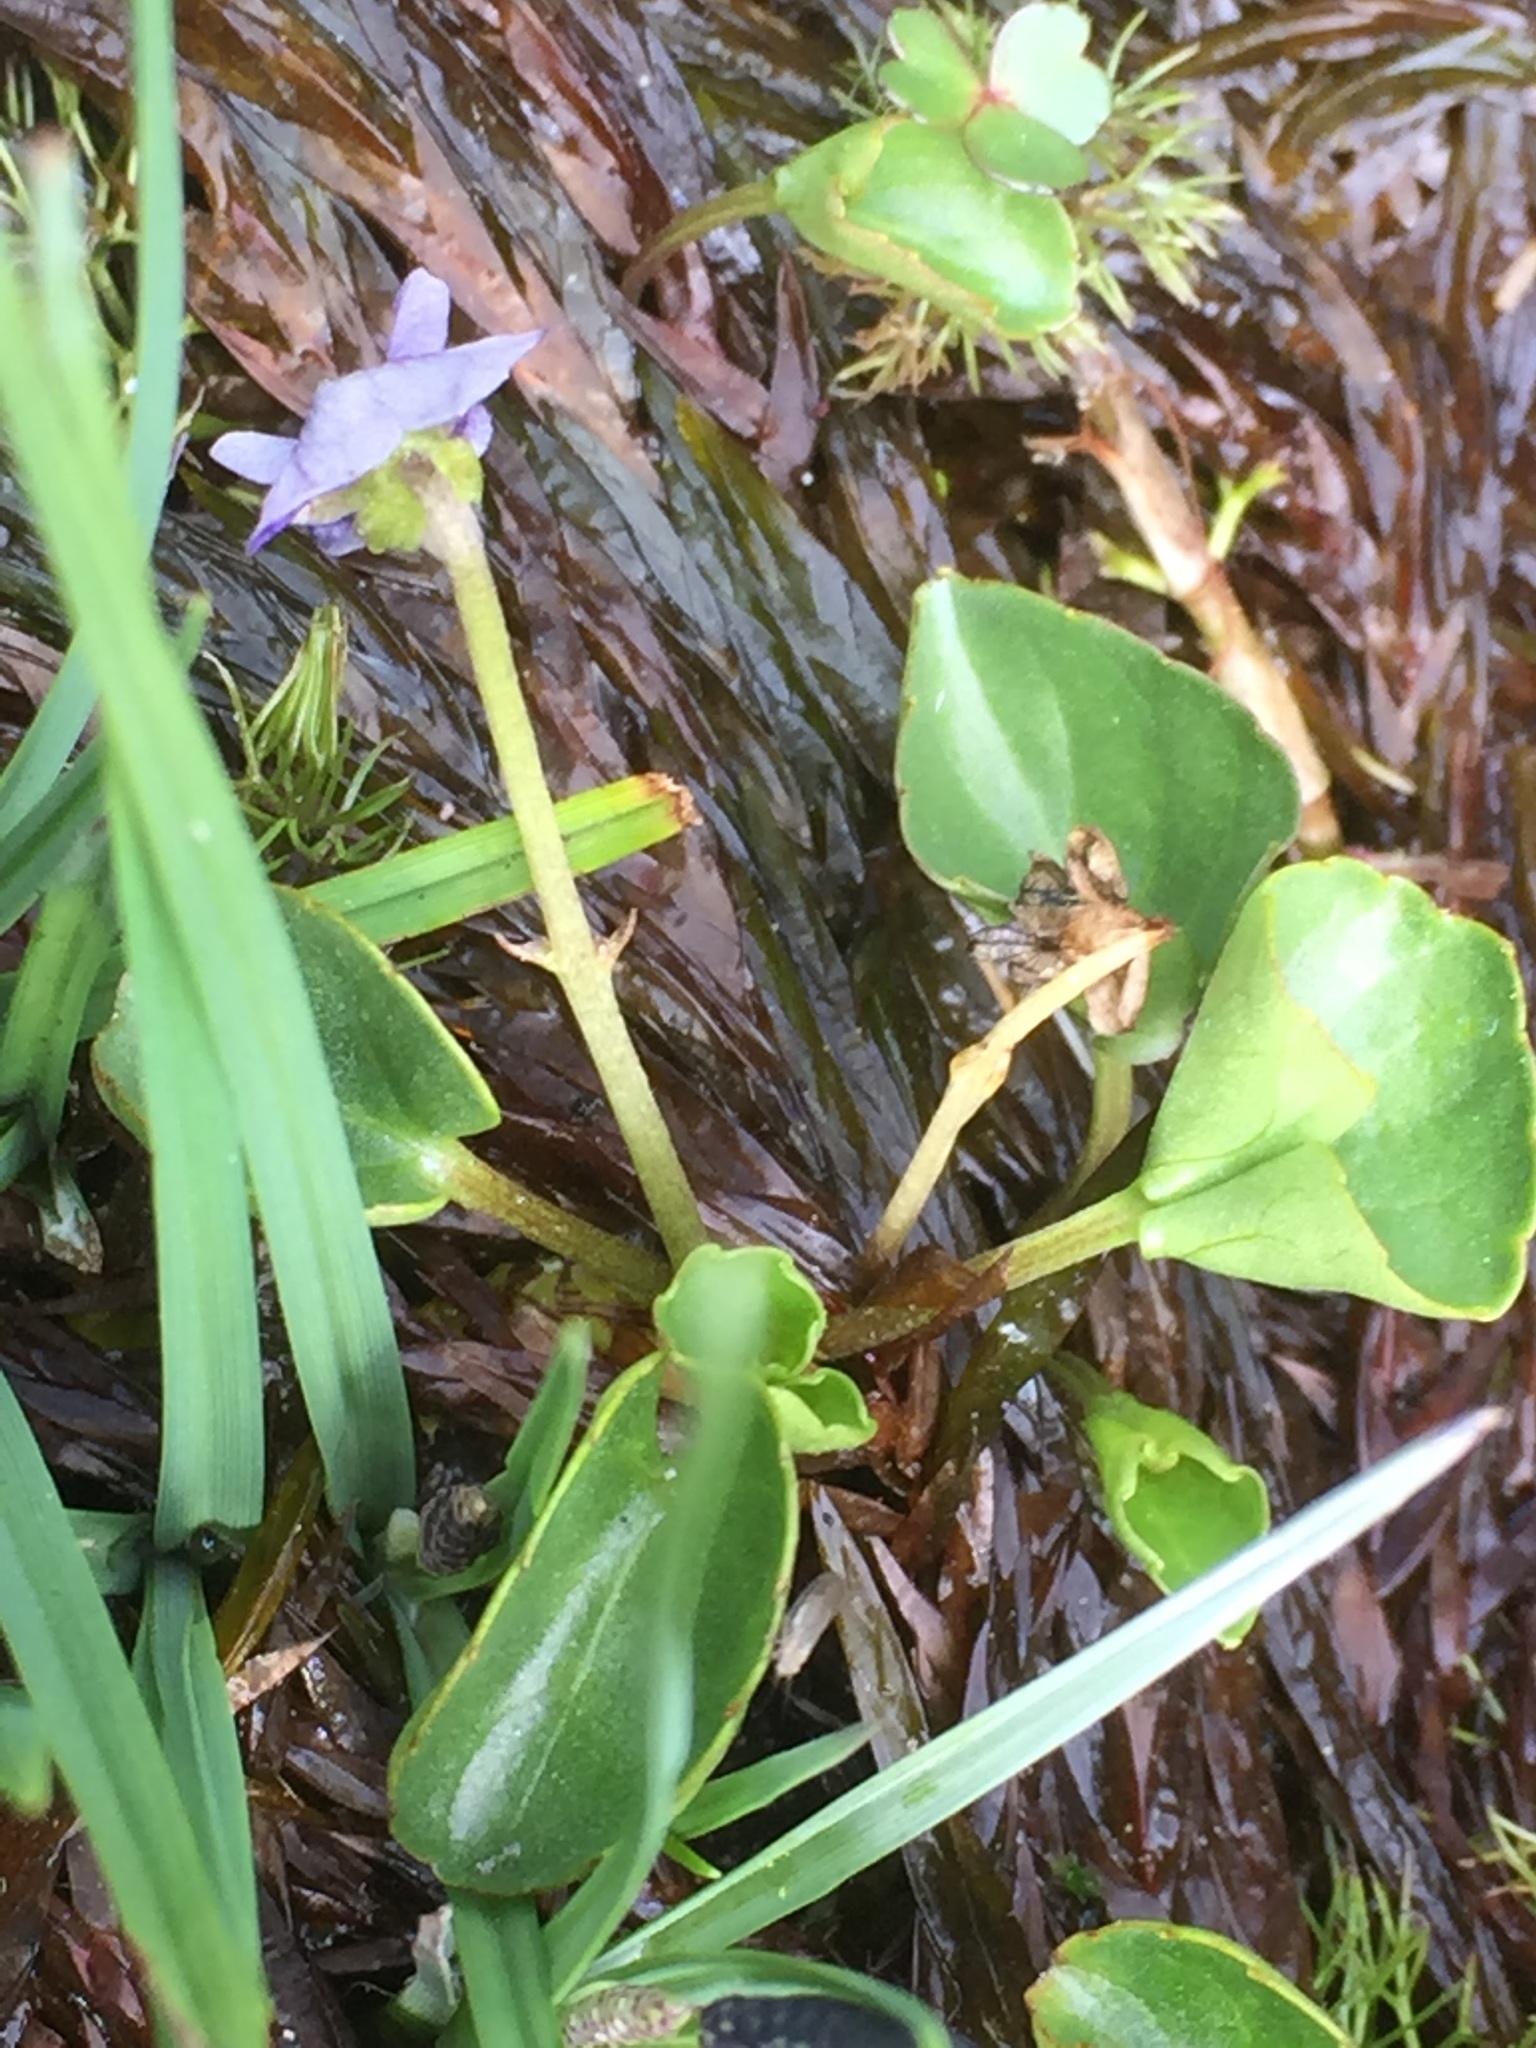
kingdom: Plantae
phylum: Tracheophyta
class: Magnoliopsida
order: Malpighiales
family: Violaceae
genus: Viola
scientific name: Viola palustris
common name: Marsh violet
